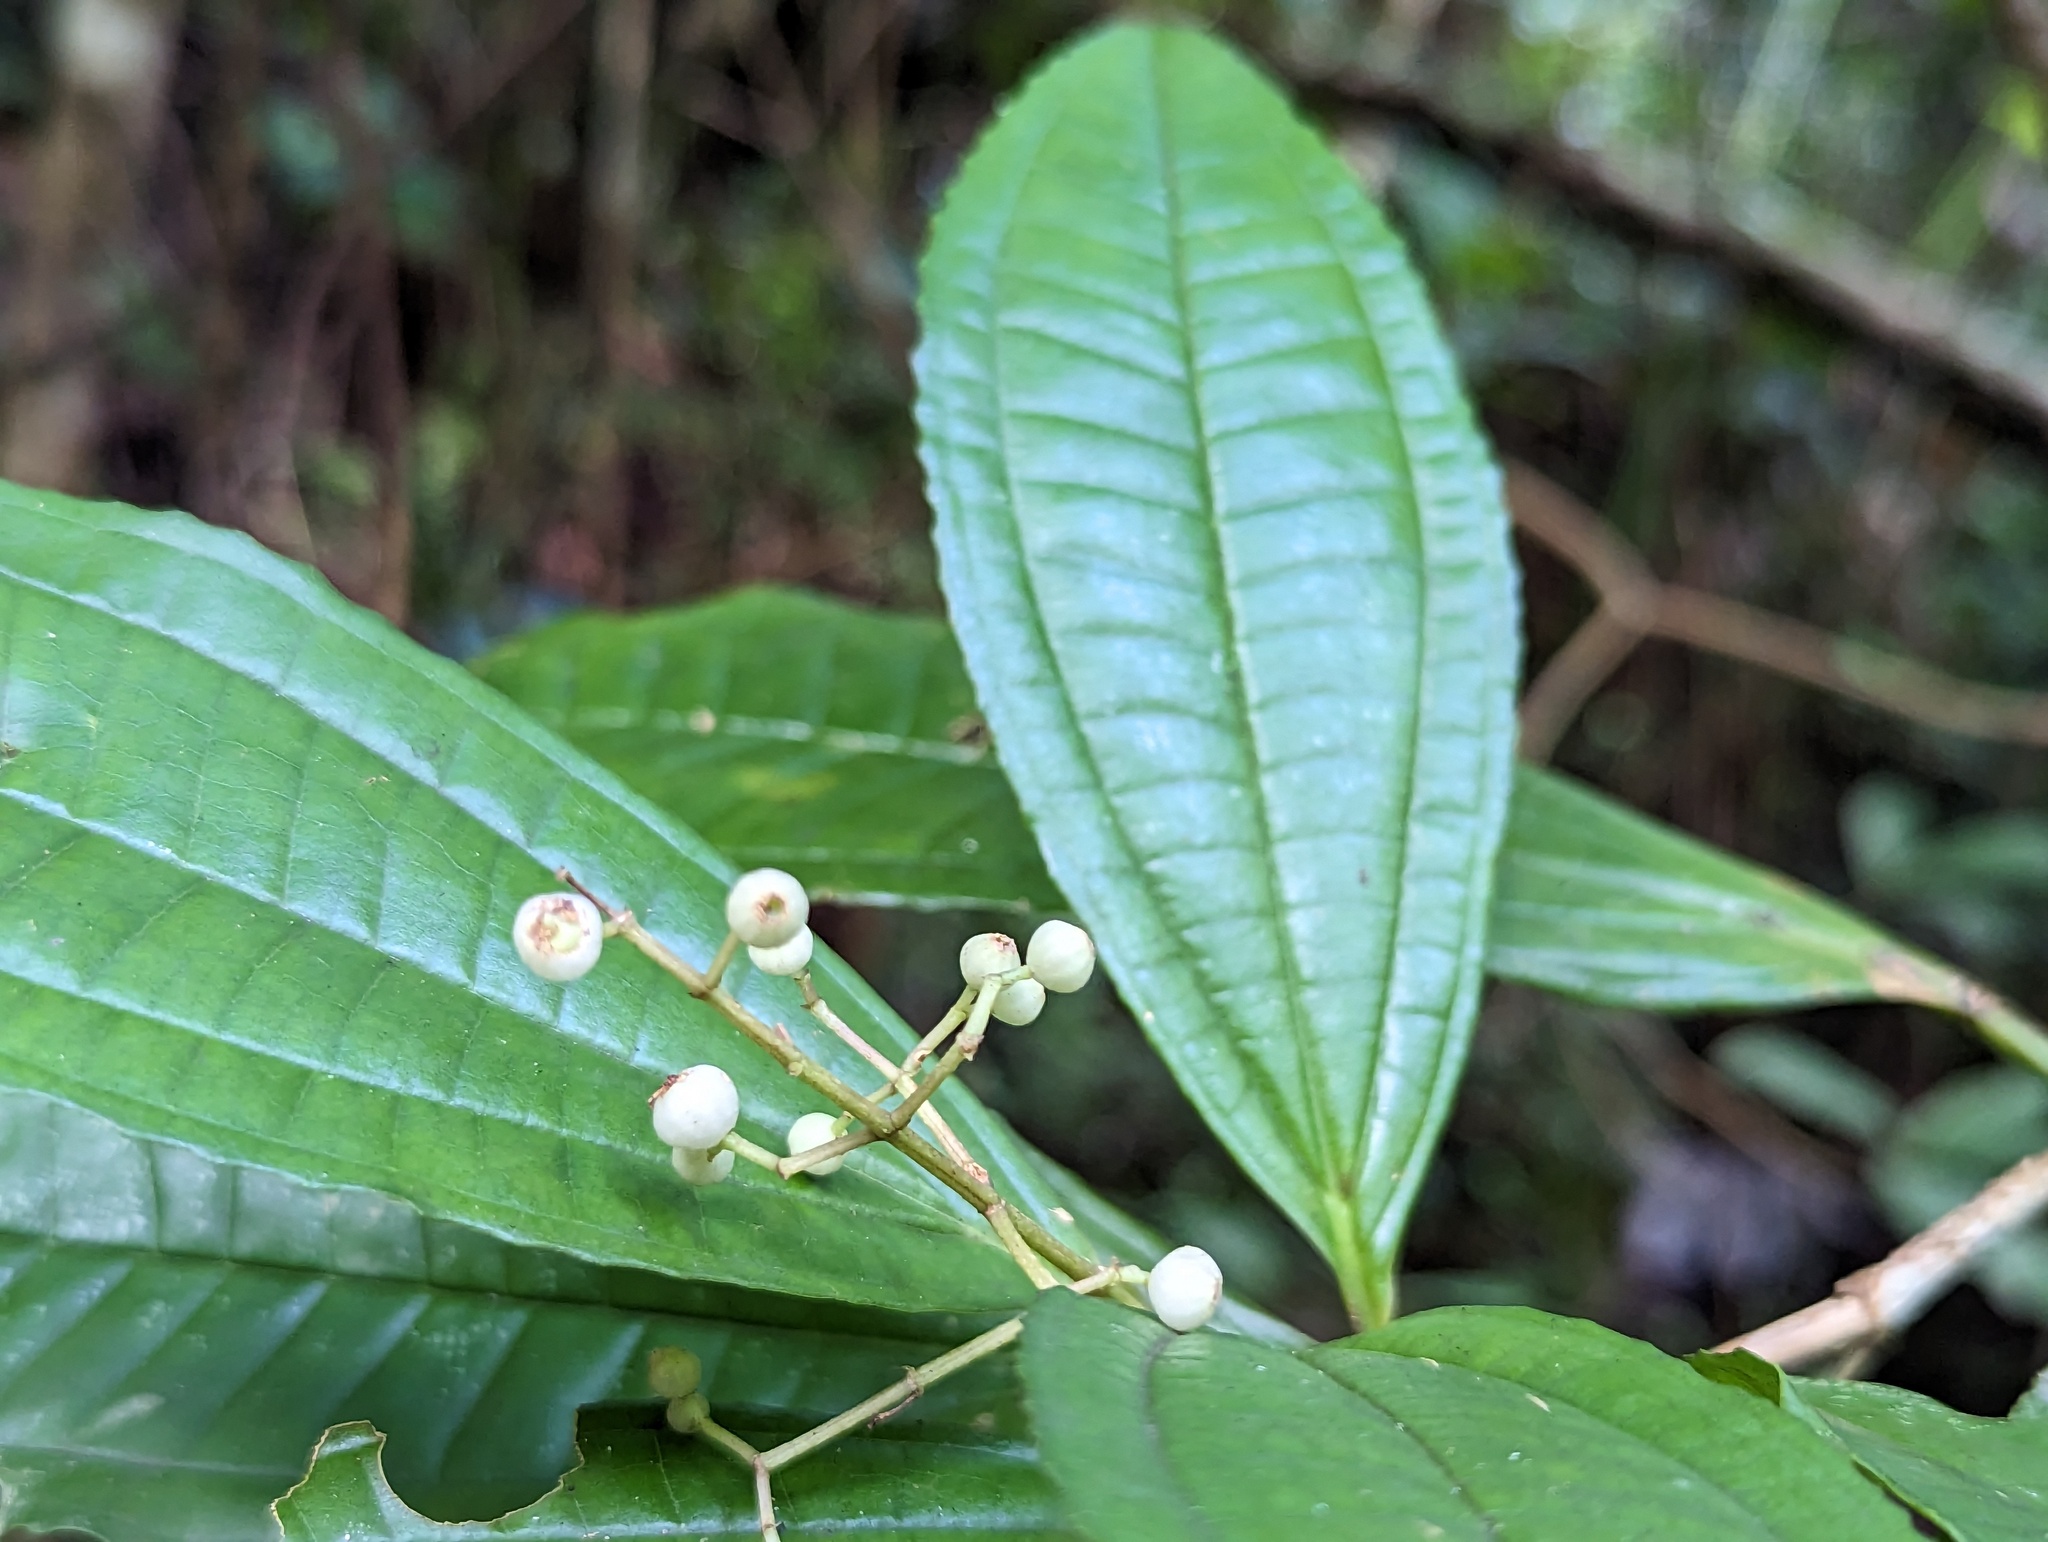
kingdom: Plantae
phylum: Tracheophyta
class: Magnoliopsida
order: Myrtales
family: Melastomataceae
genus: Miconia
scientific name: Miconia prasina
